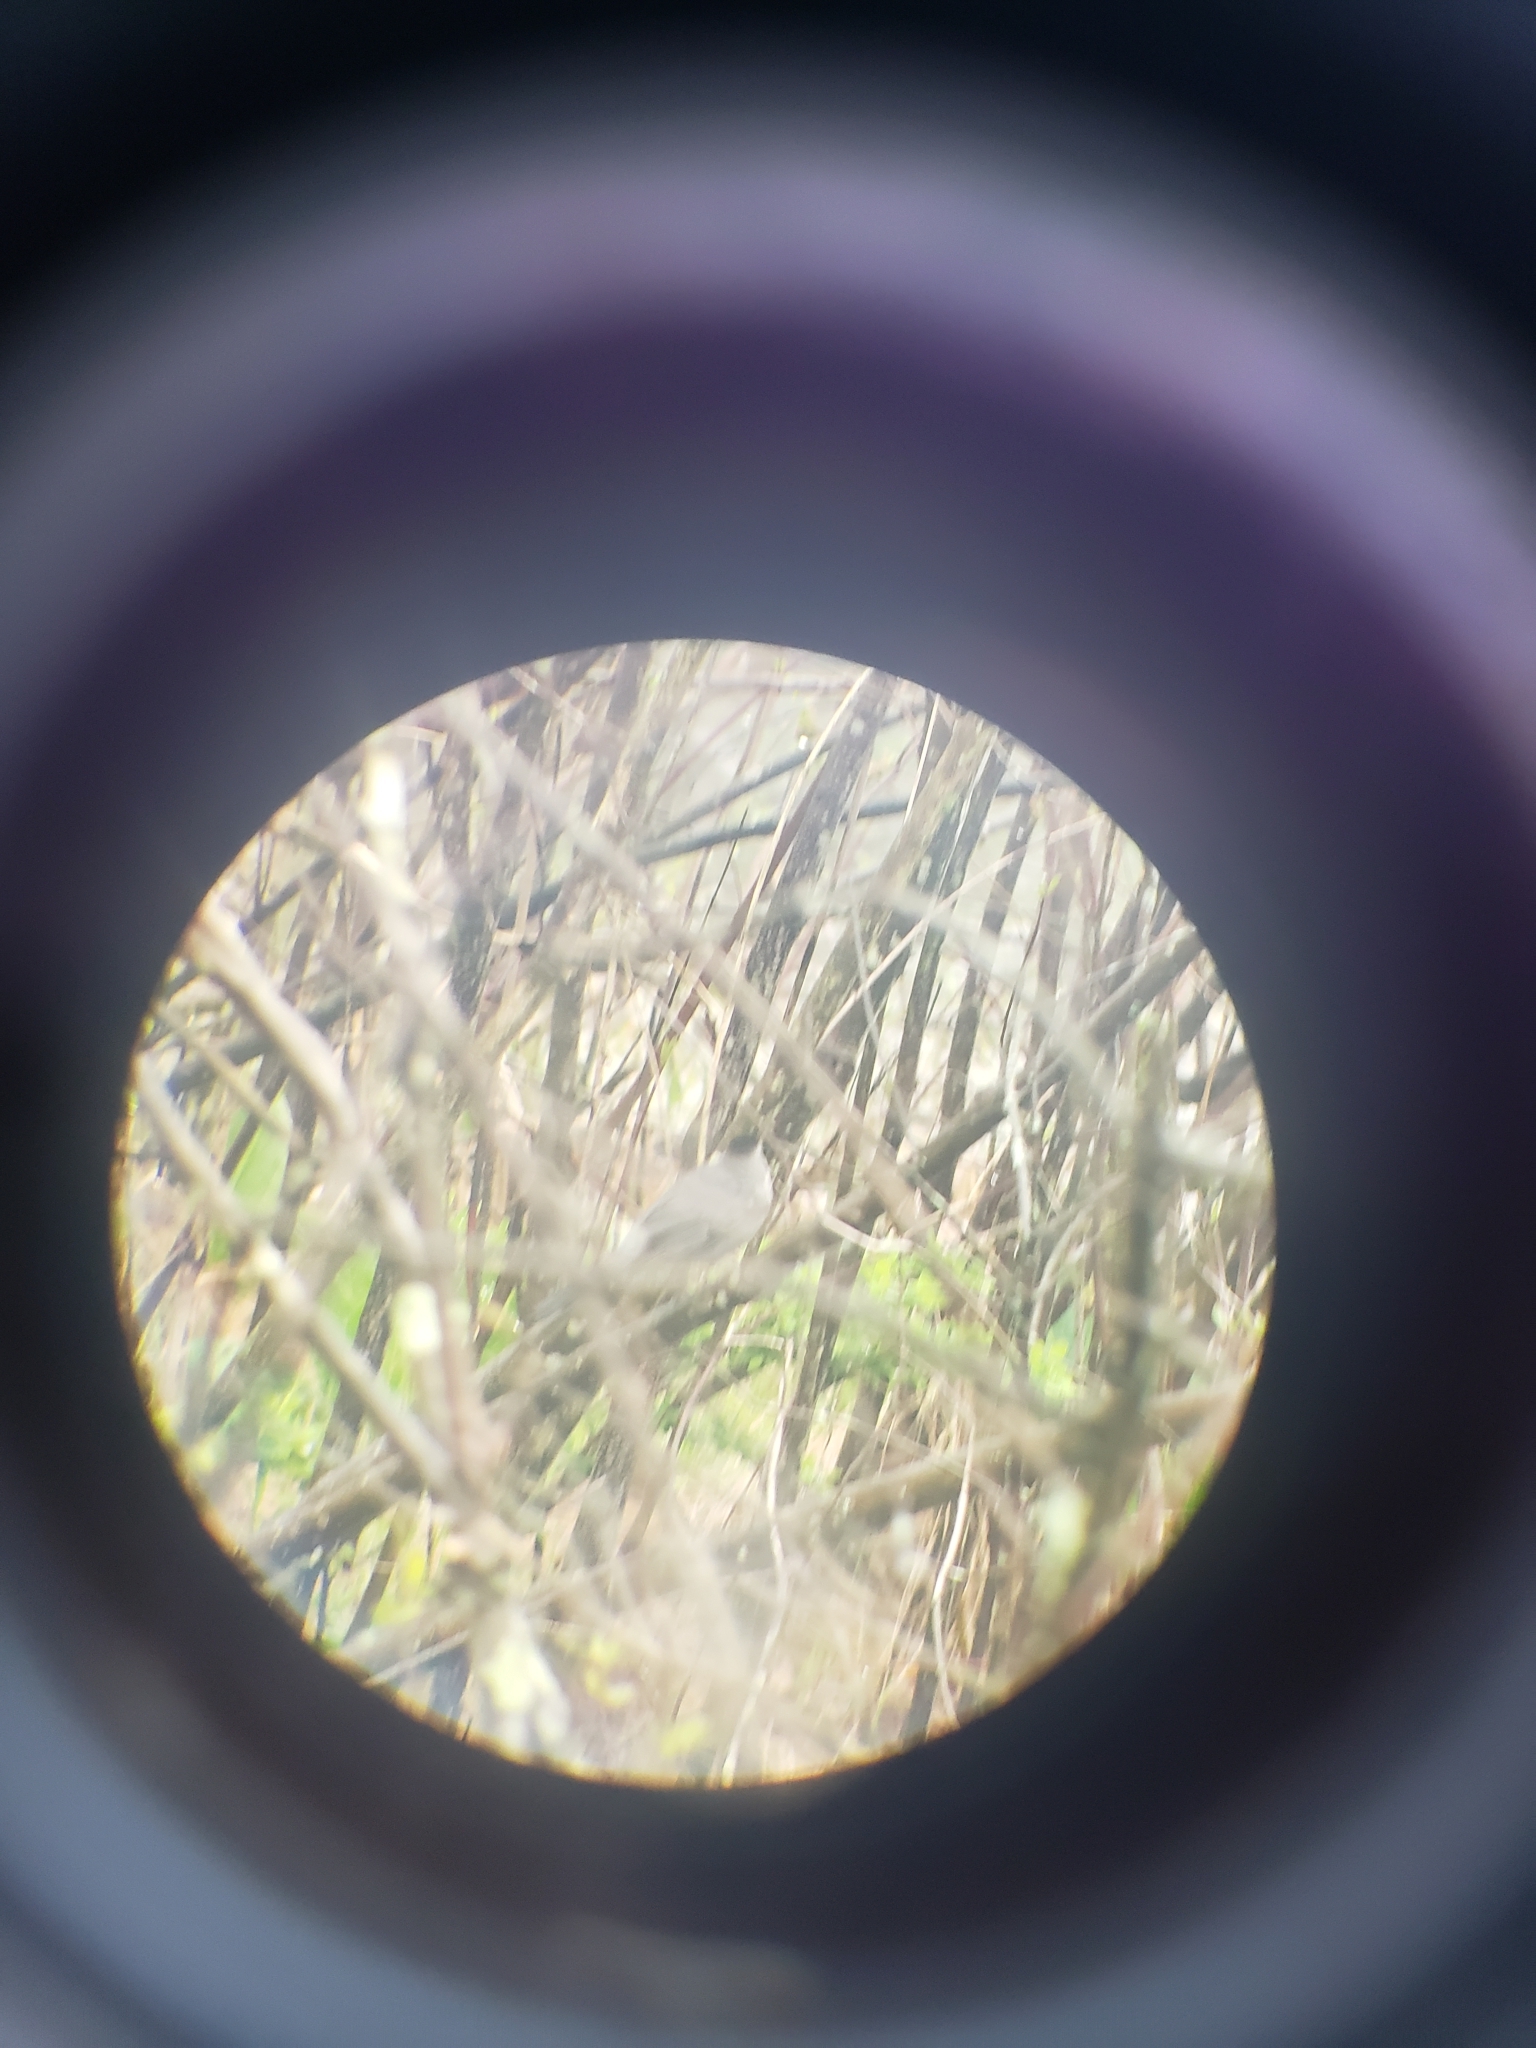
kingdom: Animalia
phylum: Chordata
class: Aves
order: Passeriformes
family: Mimidae
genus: Dumetella
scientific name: Dumetella carolinensis
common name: Gray catbird
